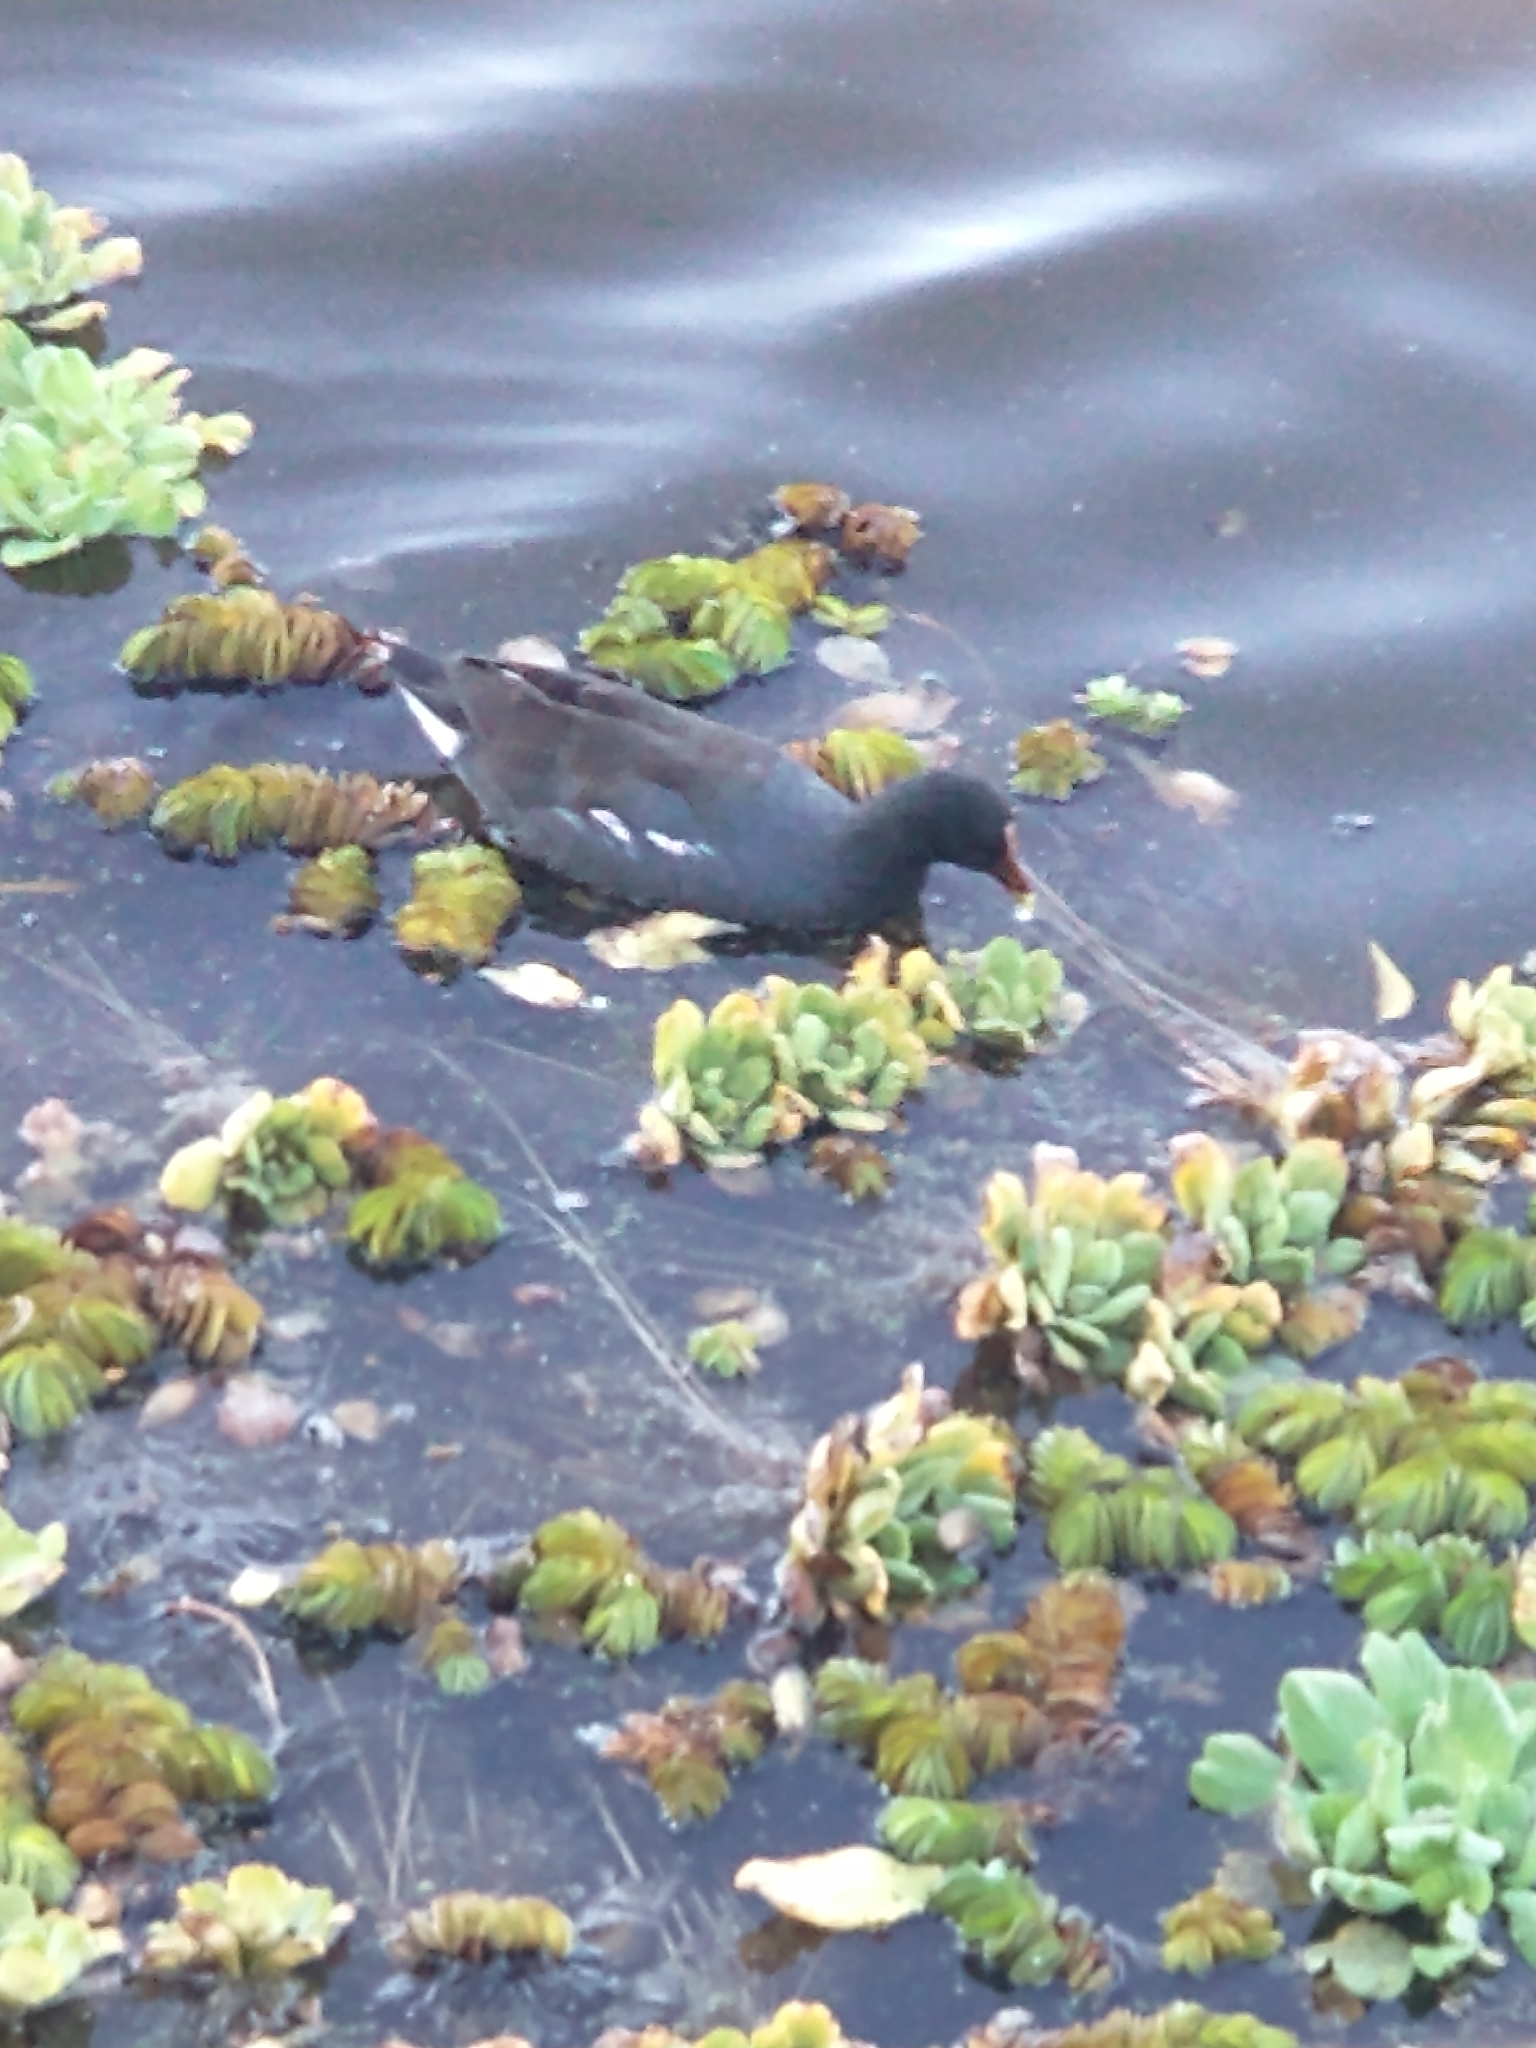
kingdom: Animalia
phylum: Chordata
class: Aves
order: Gruiformes
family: Rallidae
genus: Gallinula
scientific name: Gallinula chloropus
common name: Common moorhen
